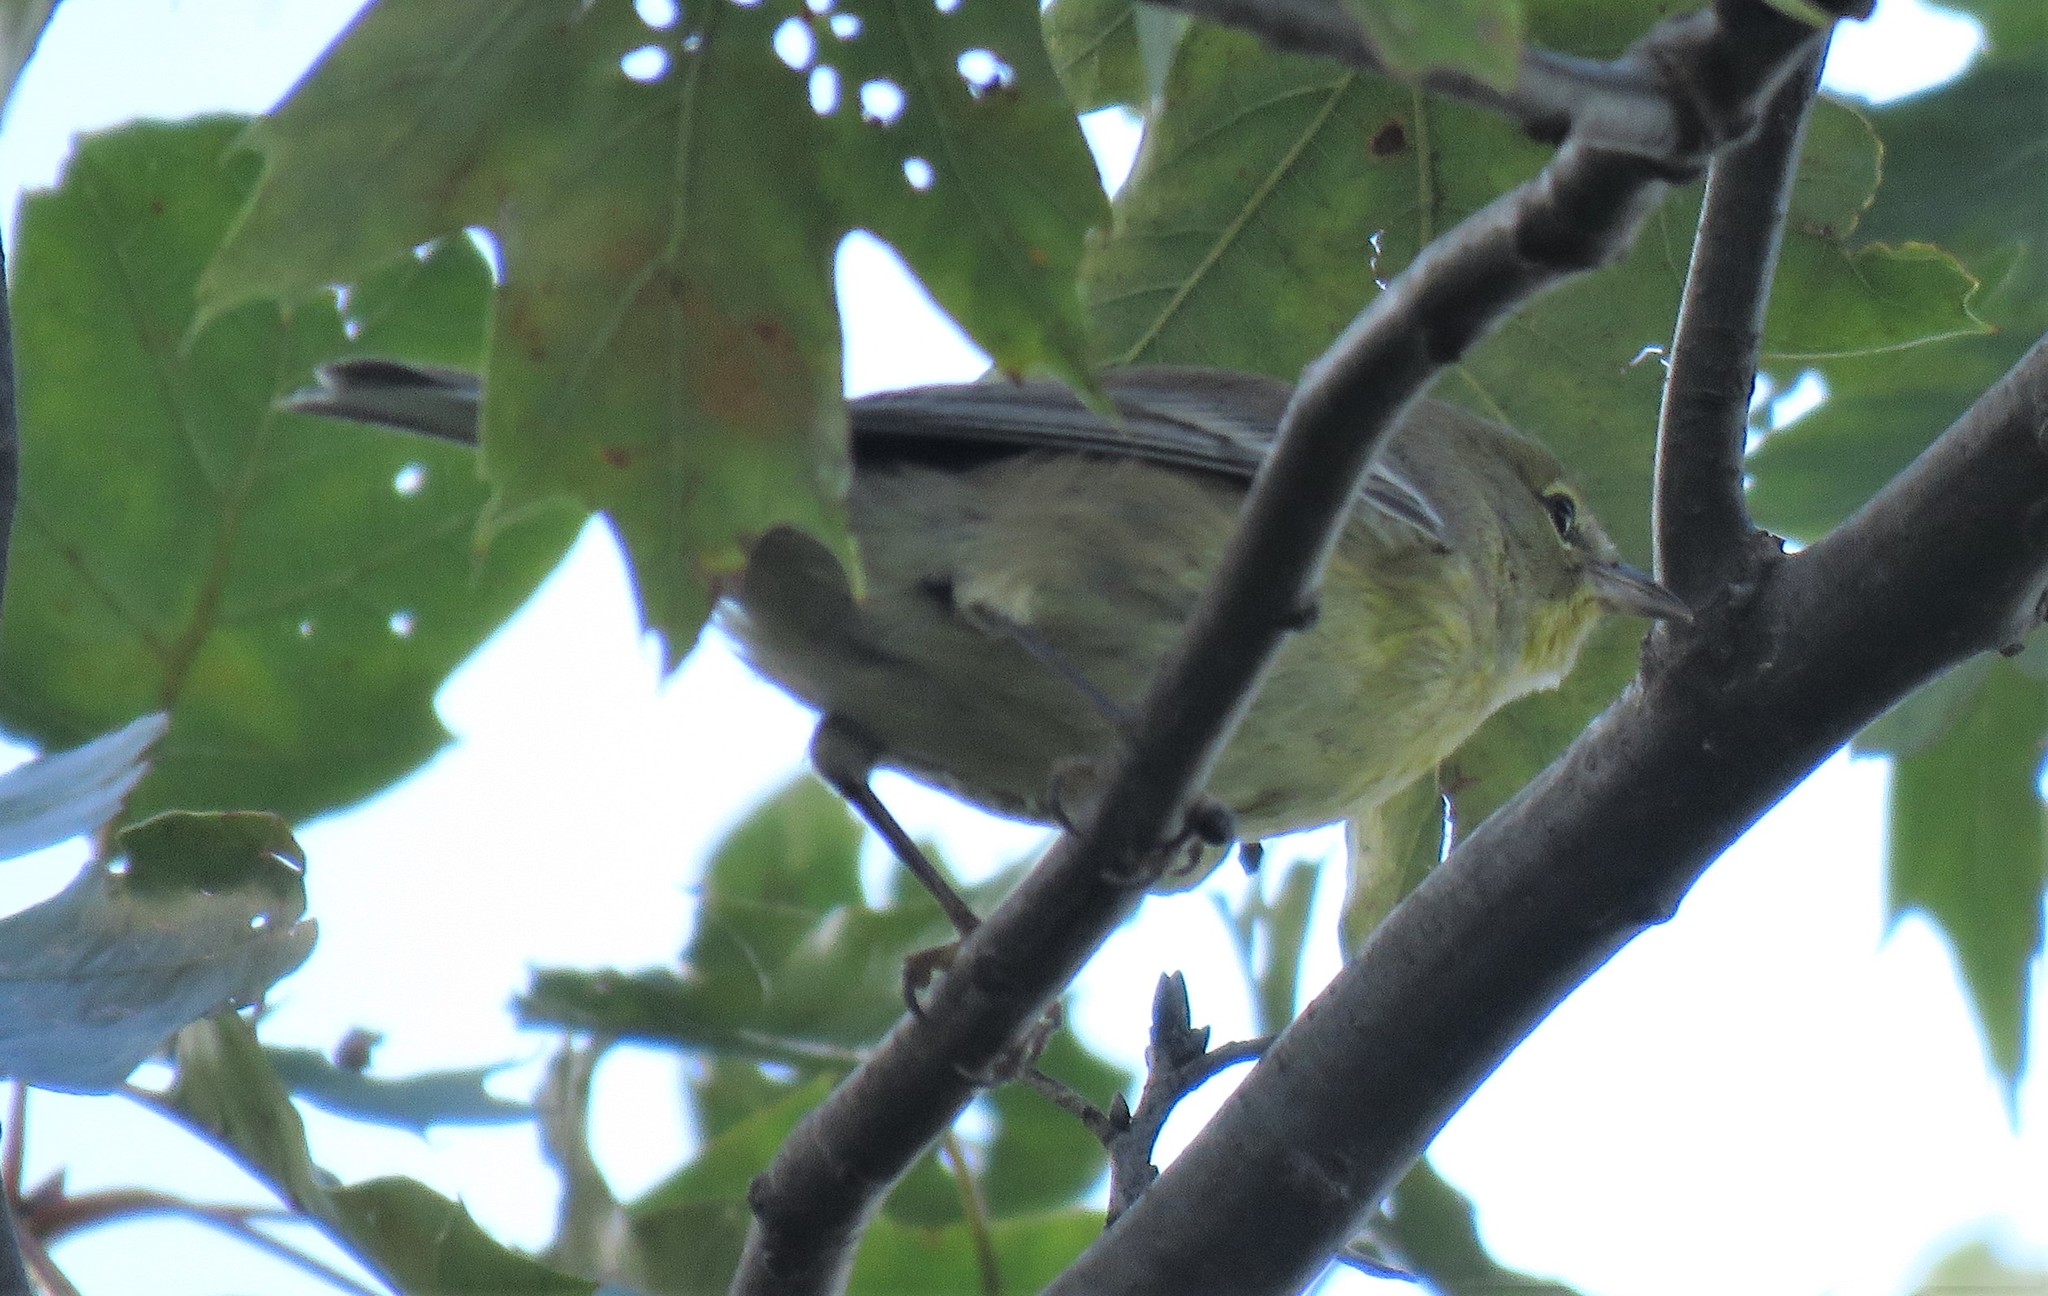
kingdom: Animalia
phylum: Chordata
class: Aves
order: Passeriformes
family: Parulidae
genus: Setophaga
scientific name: Setophaga pinus
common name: Pine warbler
